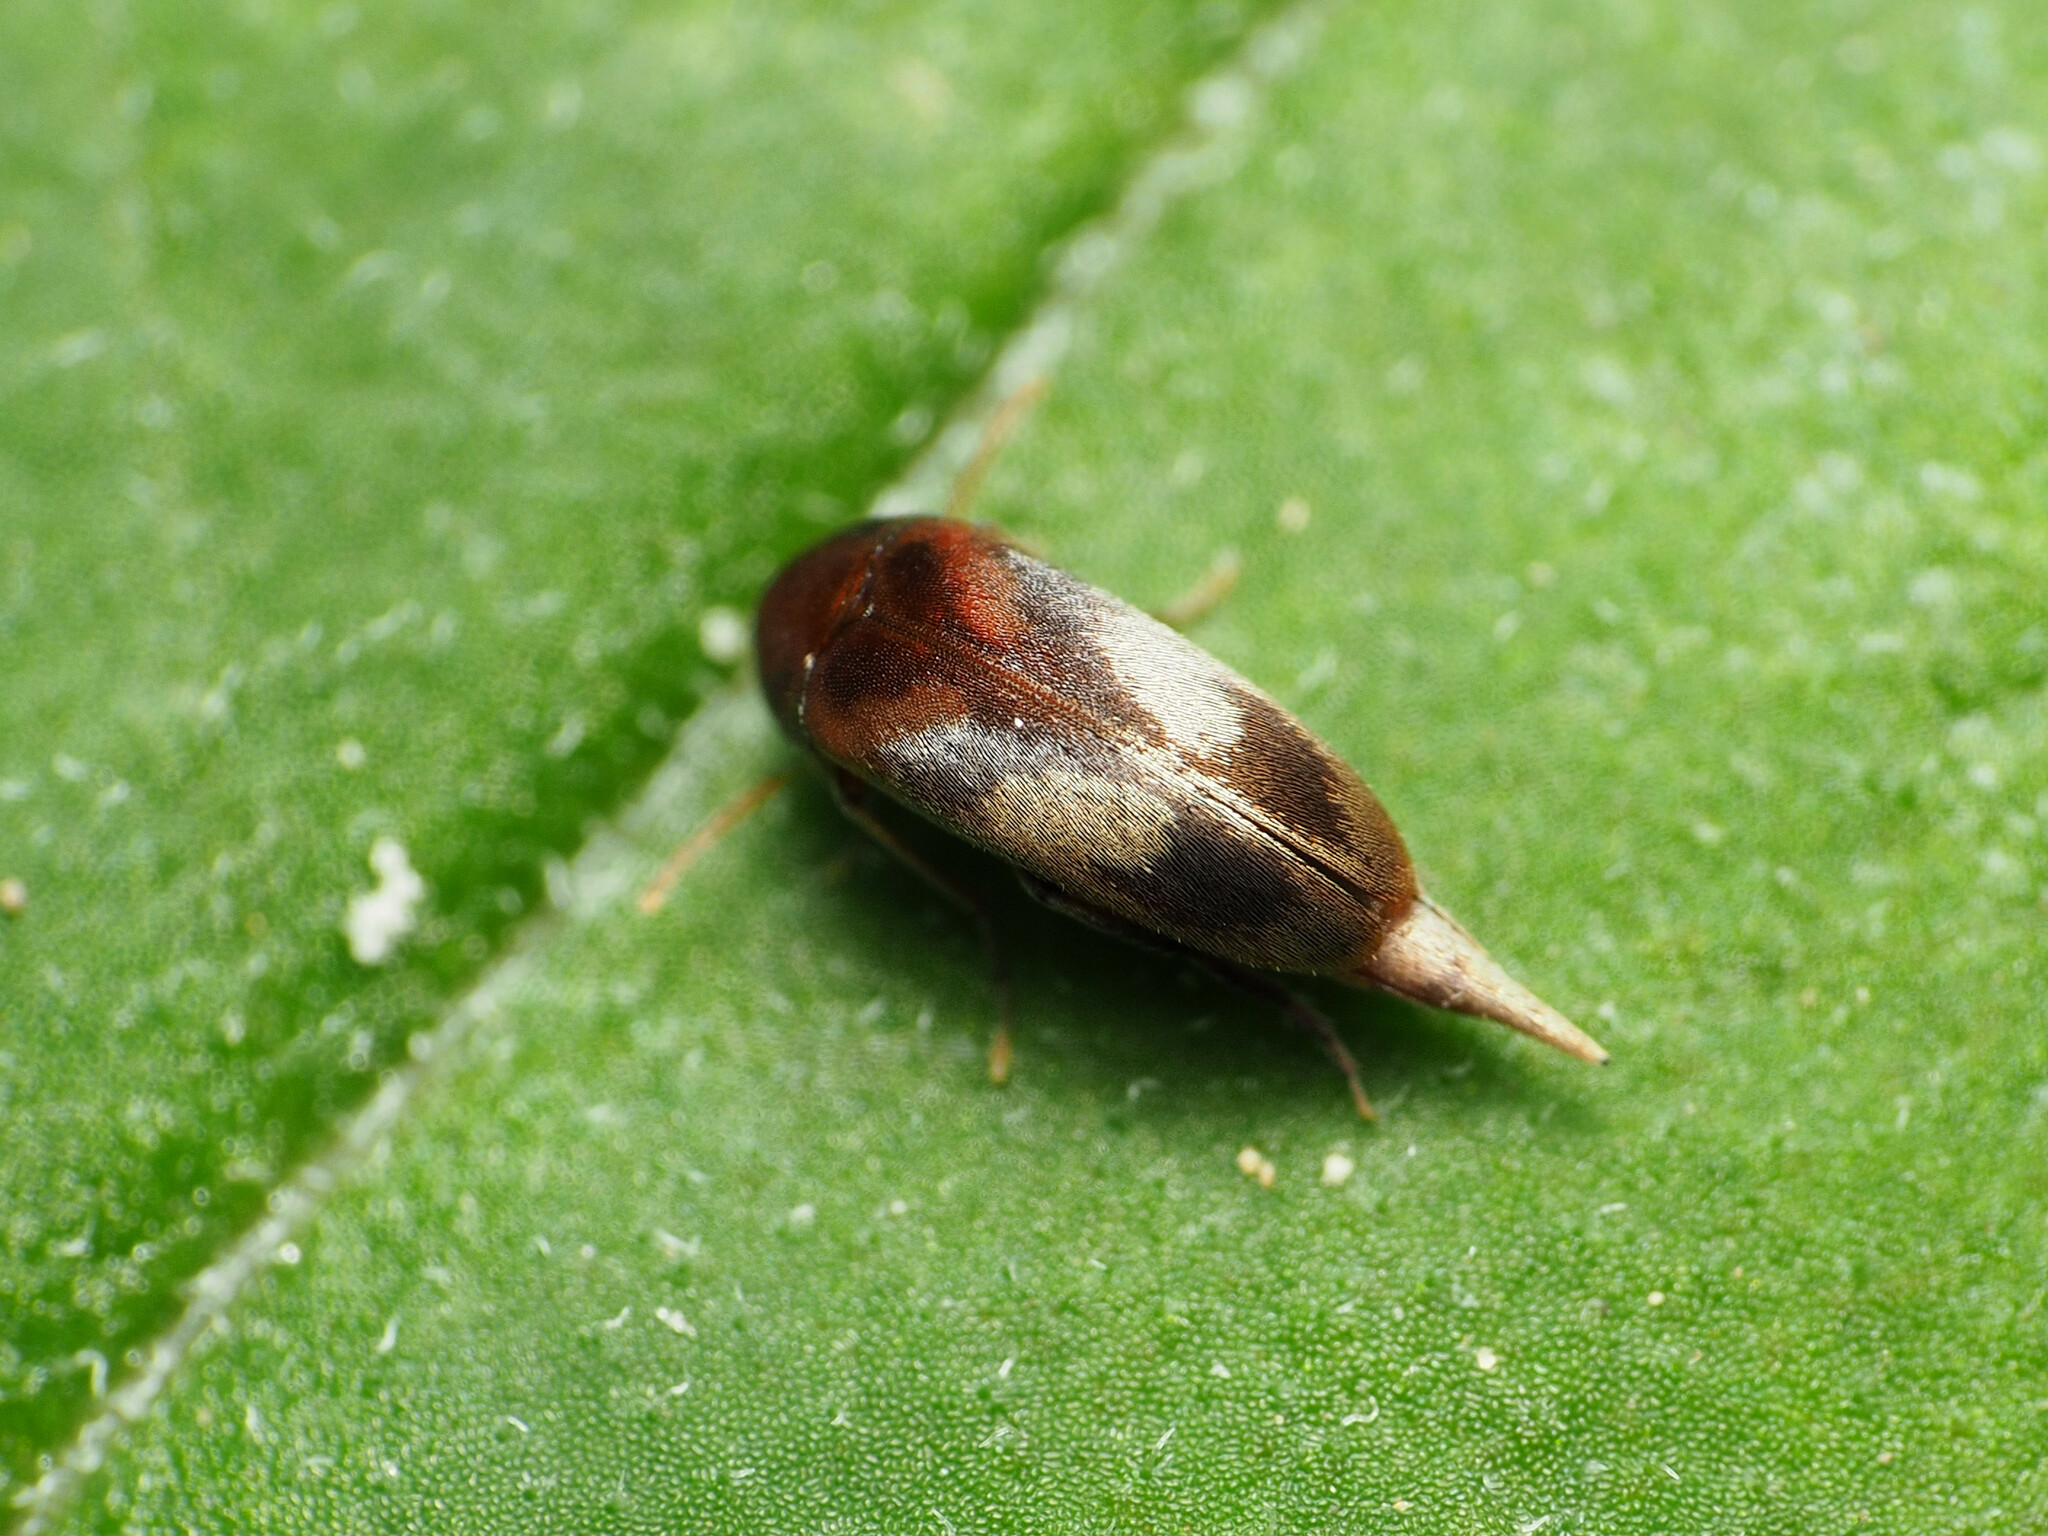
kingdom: Animalia
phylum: Arthropoda
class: Insecta
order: Coleoptera
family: Mordellidae
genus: Falsomordellistena
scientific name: Falsomordellistena liturata
